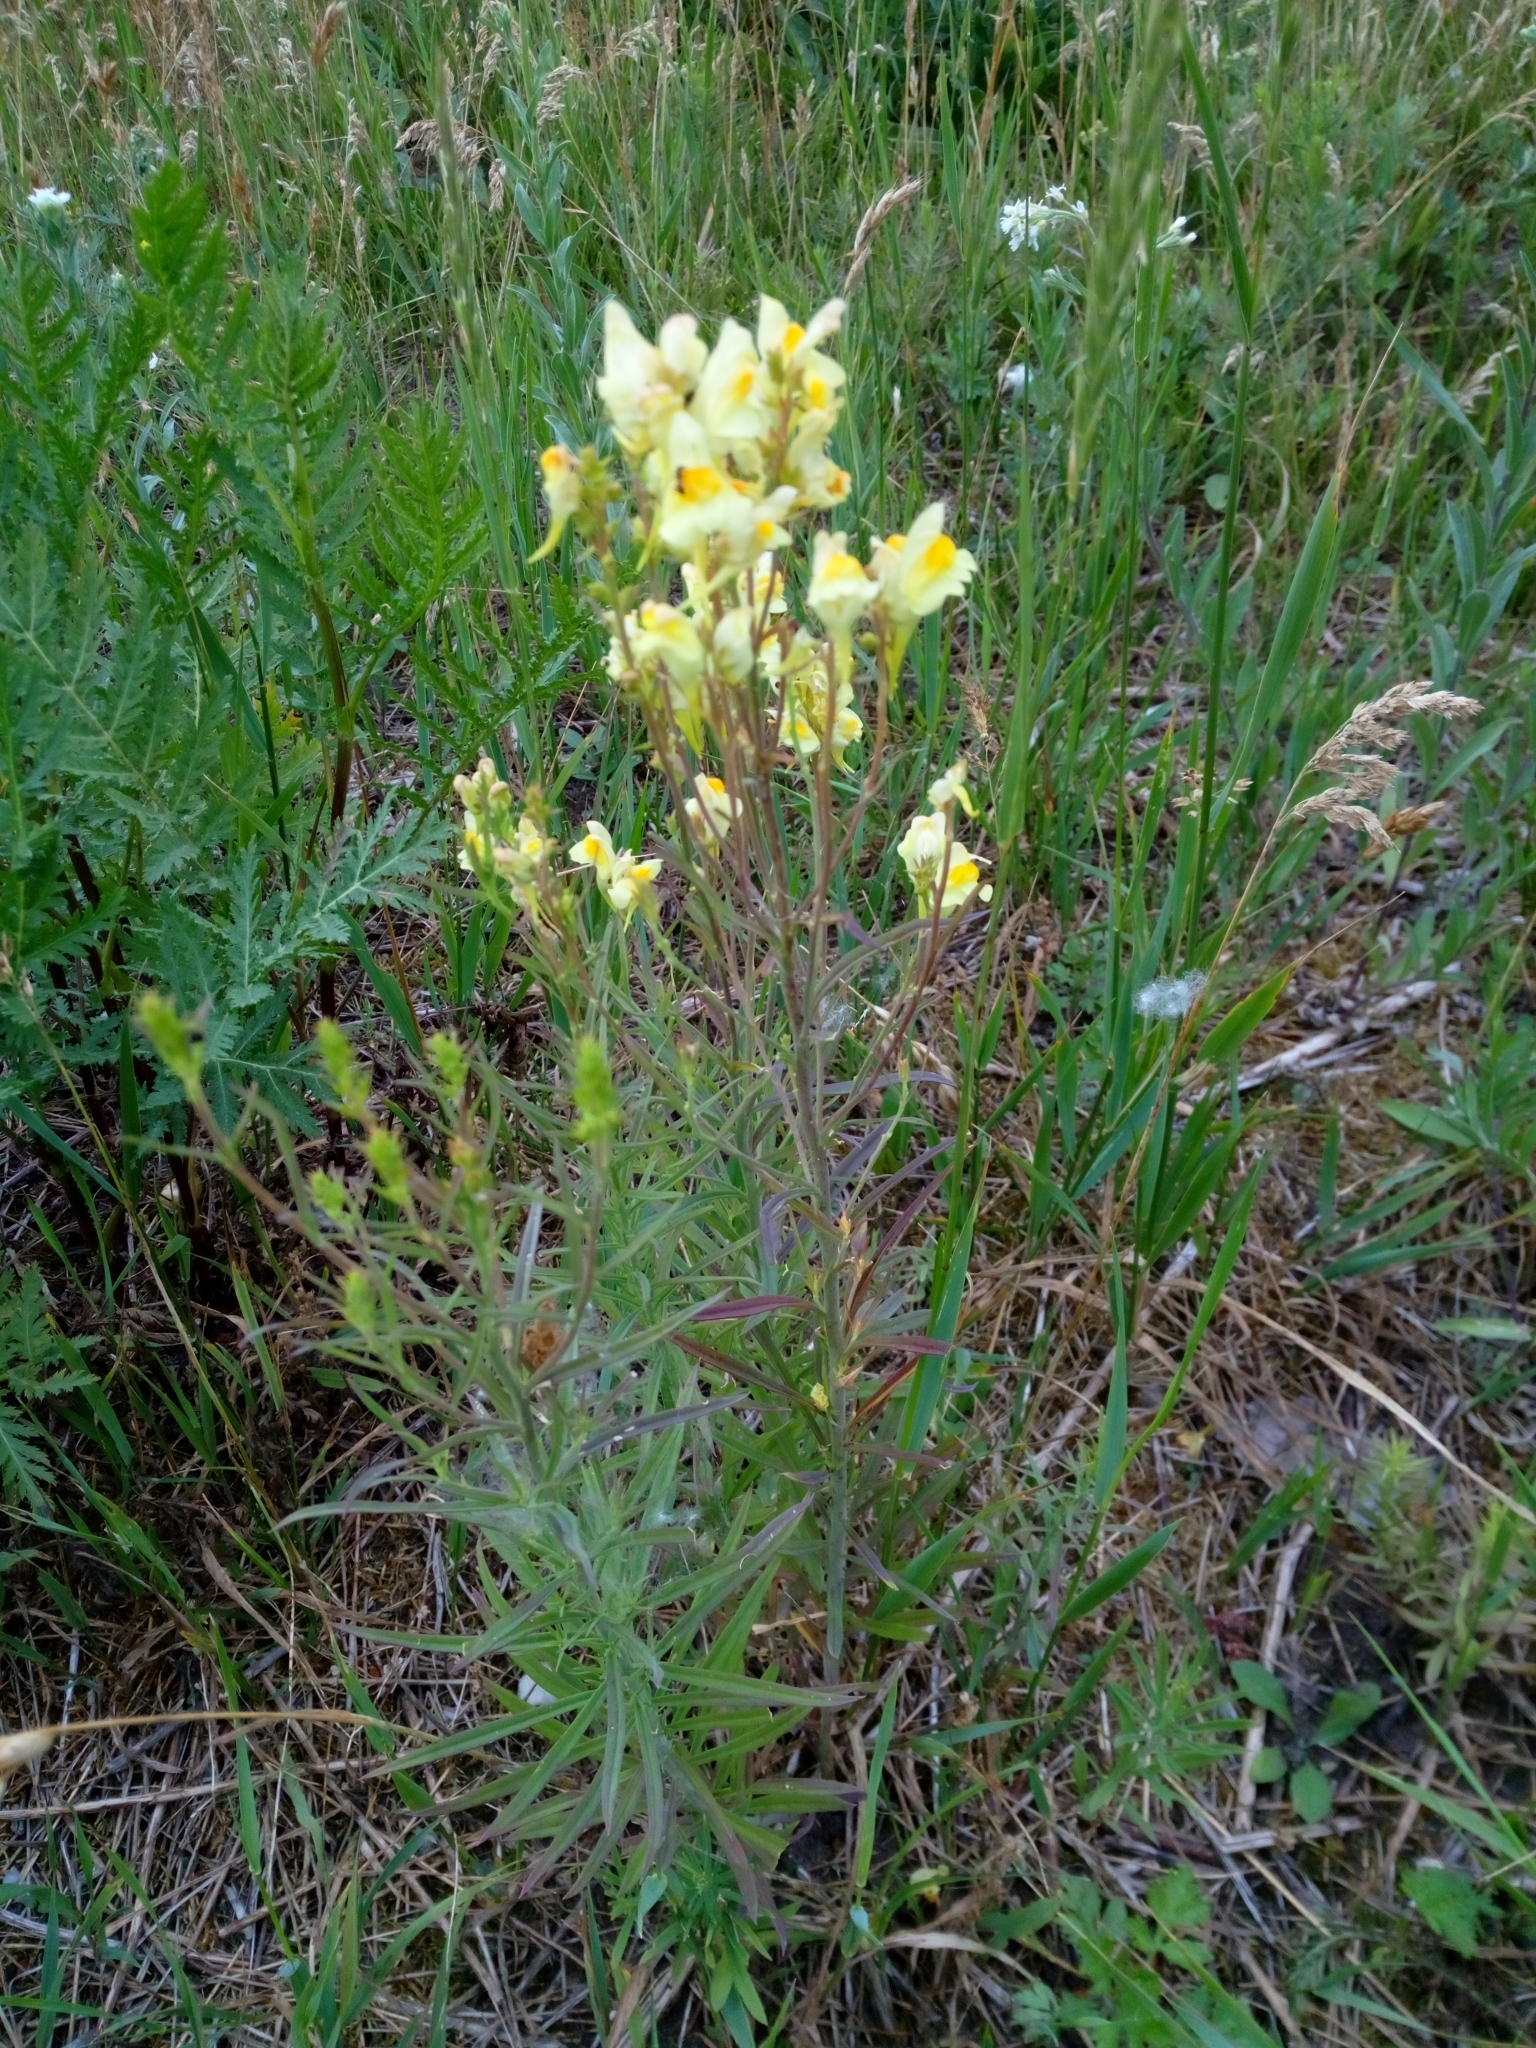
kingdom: Plantae
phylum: Tracheophyta
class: Magnoliopsida
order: Lamiales
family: Plantaginaceae
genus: Linaria
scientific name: Linaria vulgaris
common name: Butter and eggs
